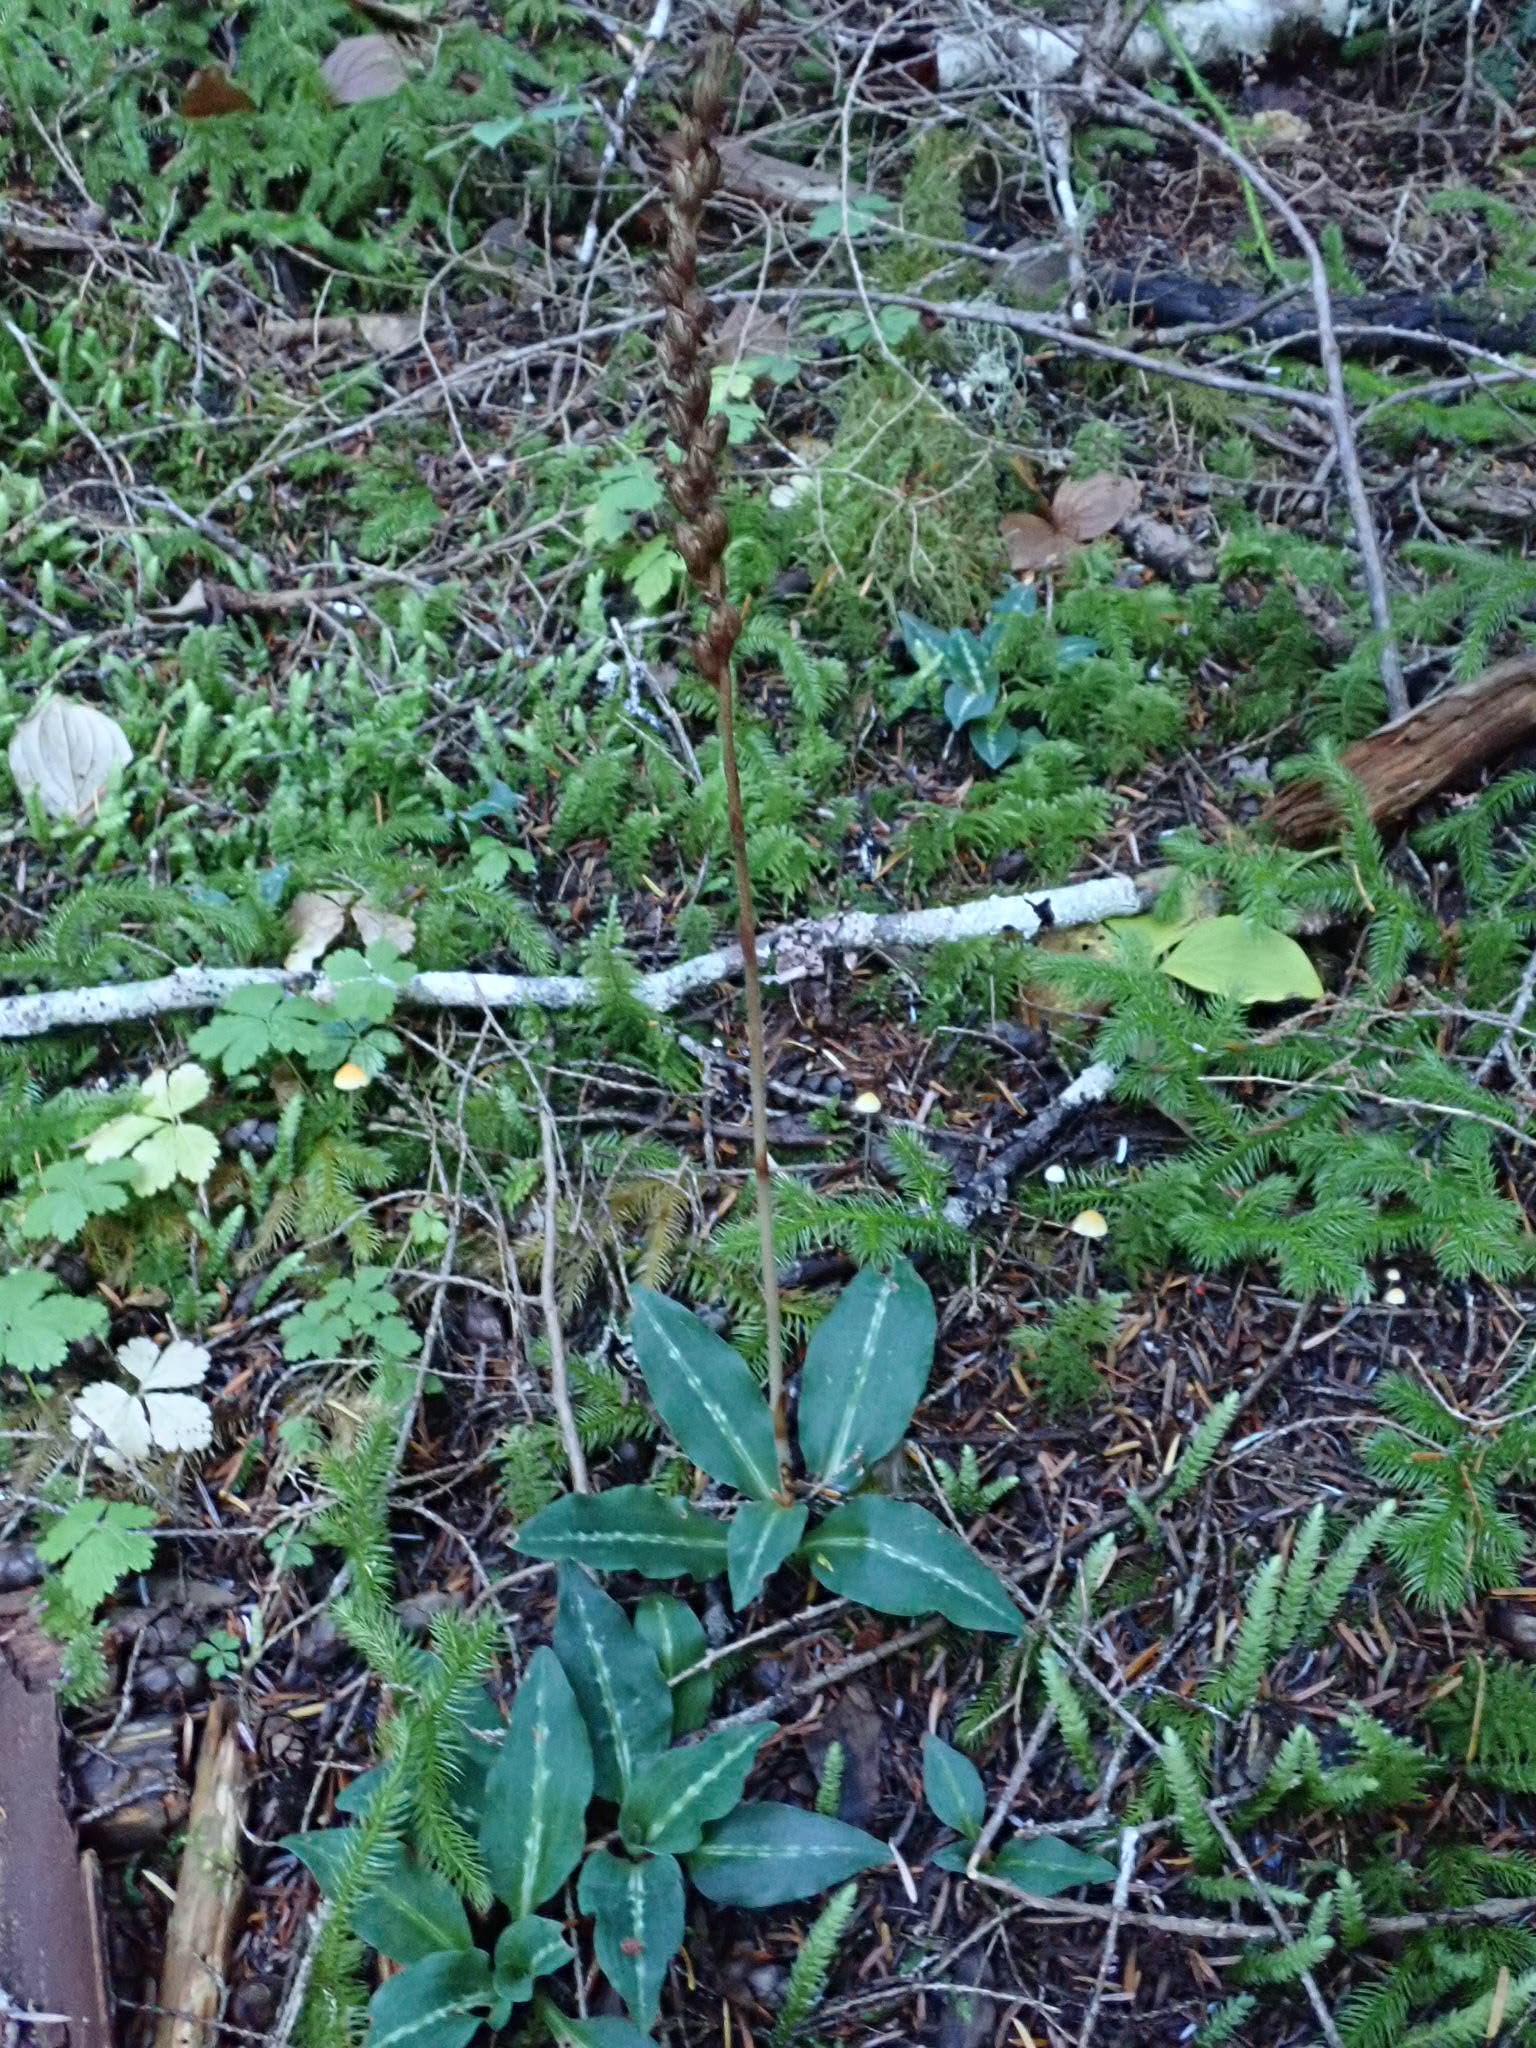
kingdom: Plantae
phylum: Tracheophyta
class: Liliopsida
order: Asparagales
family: Orchidaceae
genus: Goodyera
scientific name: Goodyera oblongifolia
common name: Giant rattlesnake-plantain
